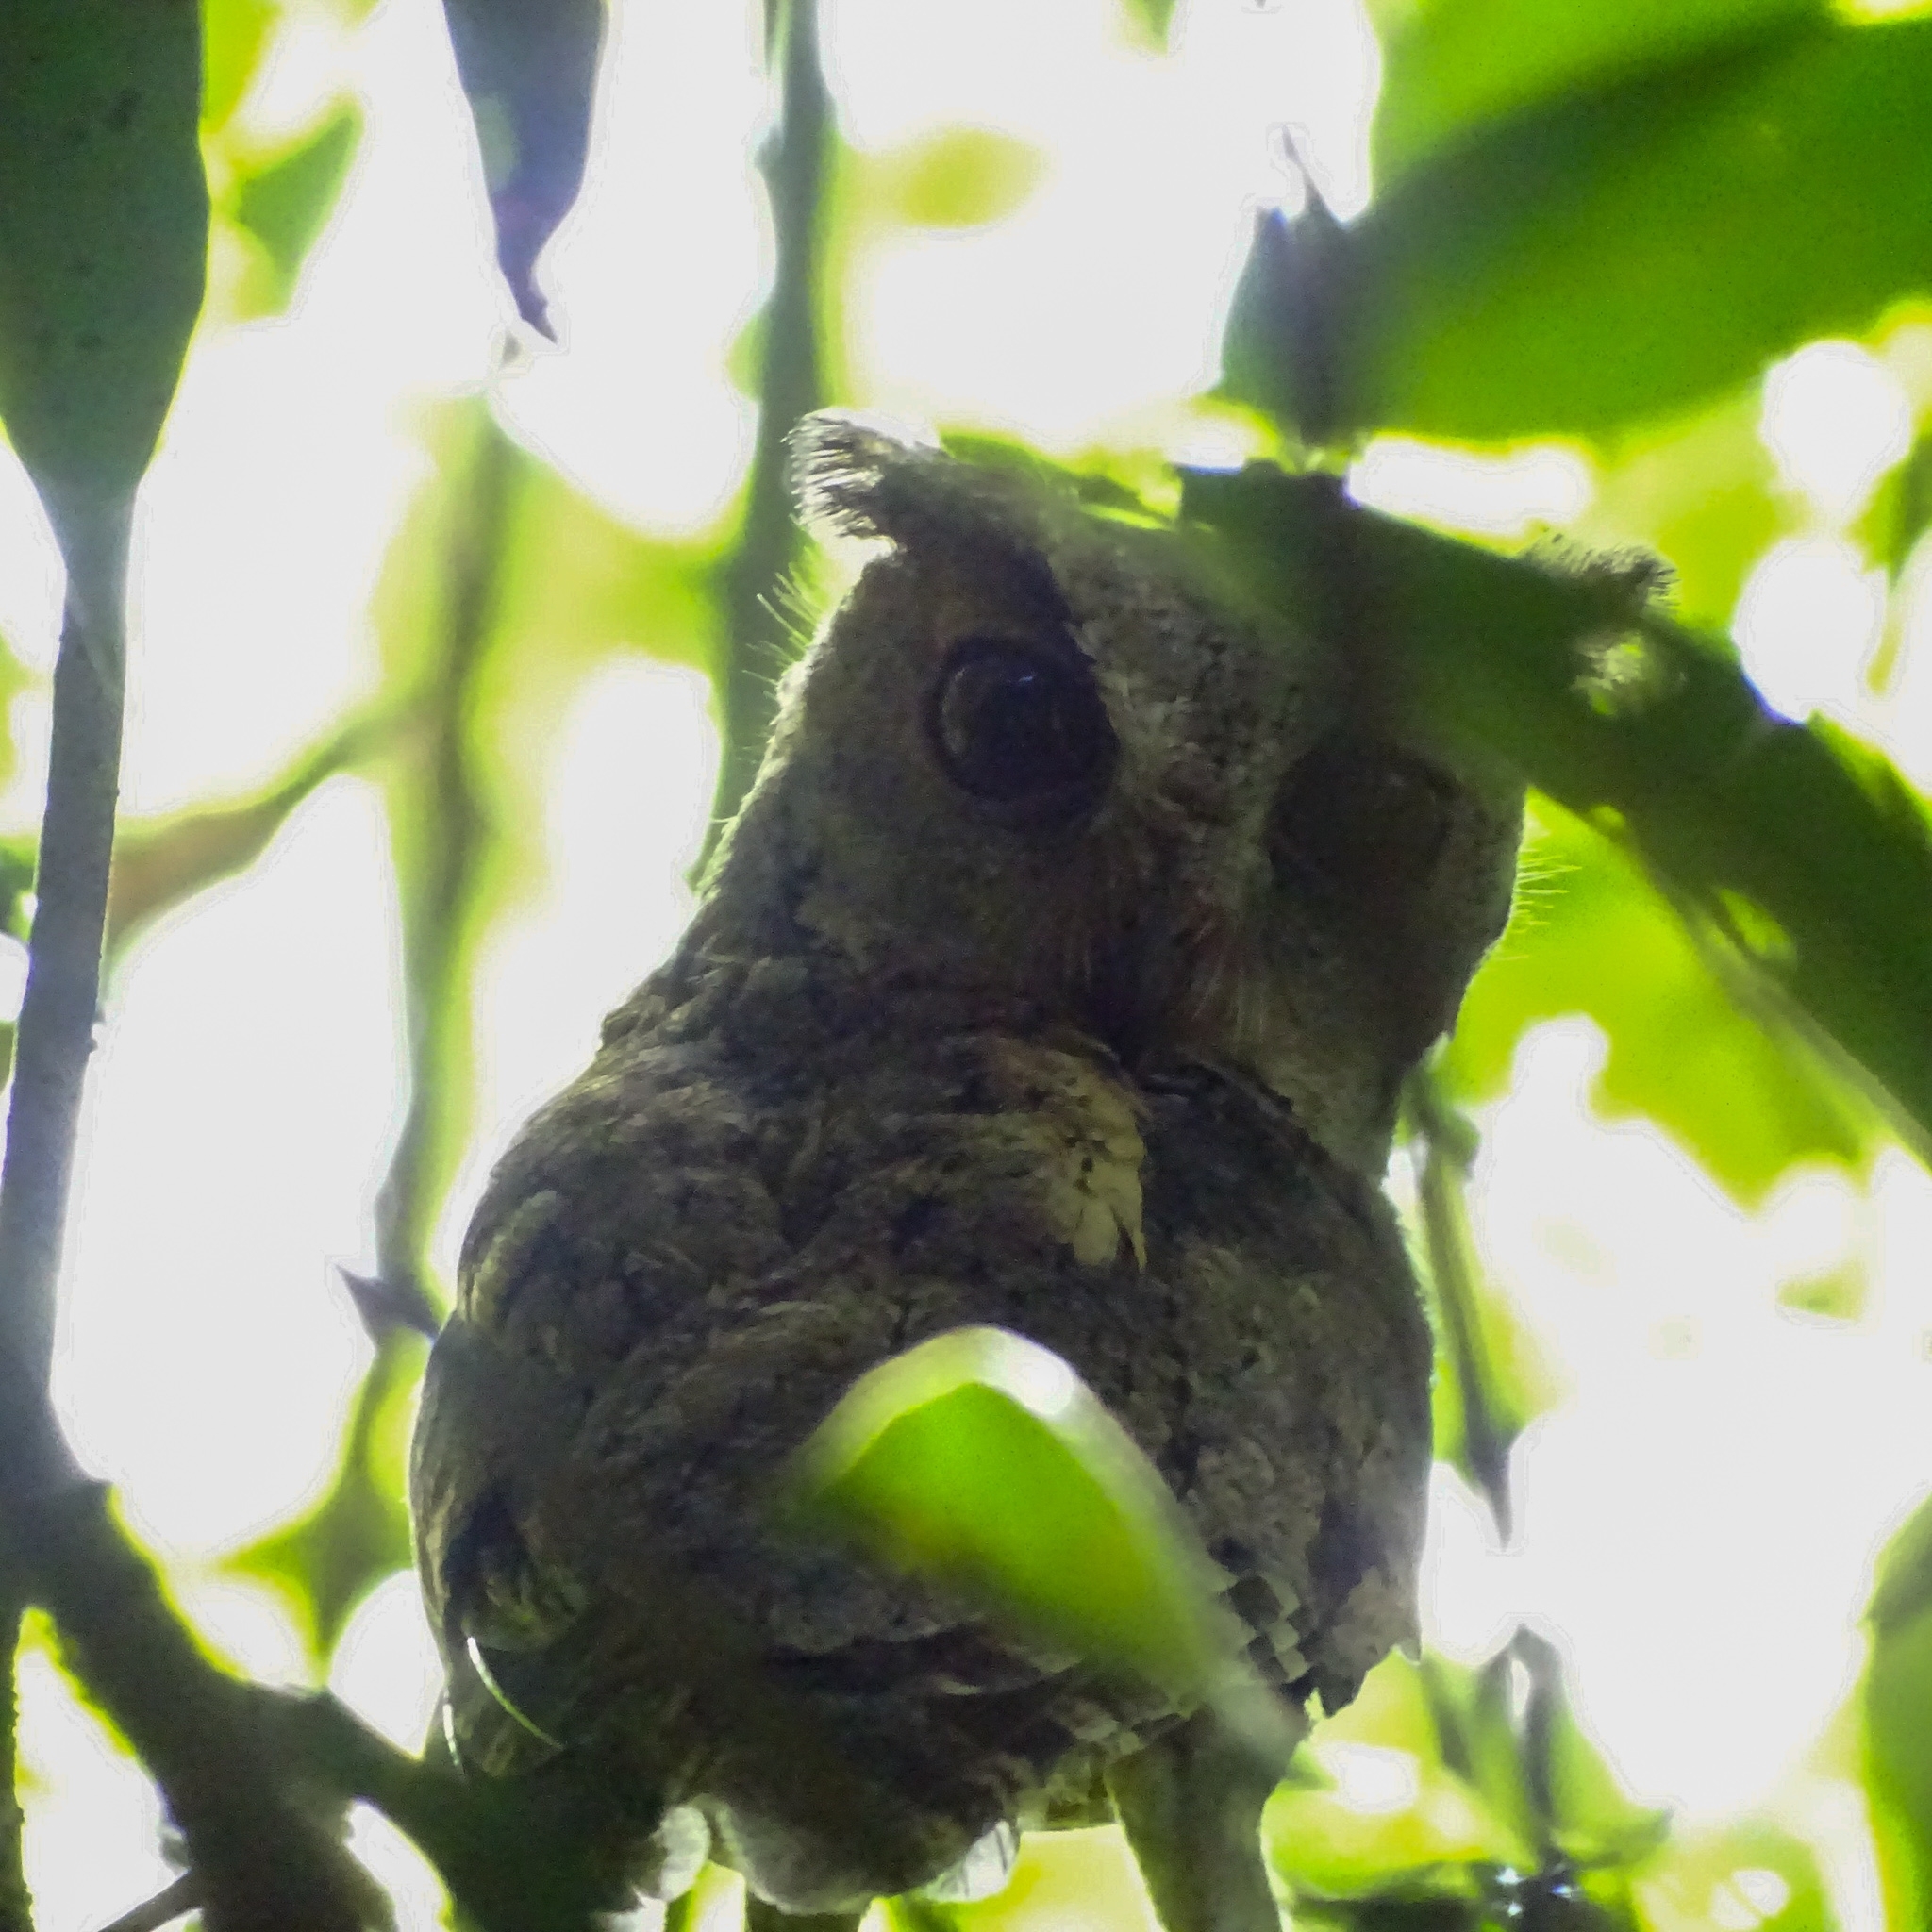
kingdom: Animalia
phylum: Chordata
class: Aves
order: Strigiformes
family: Strigidae
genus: Otus
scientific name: Otus bakkamoena
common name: Indian scops owl
